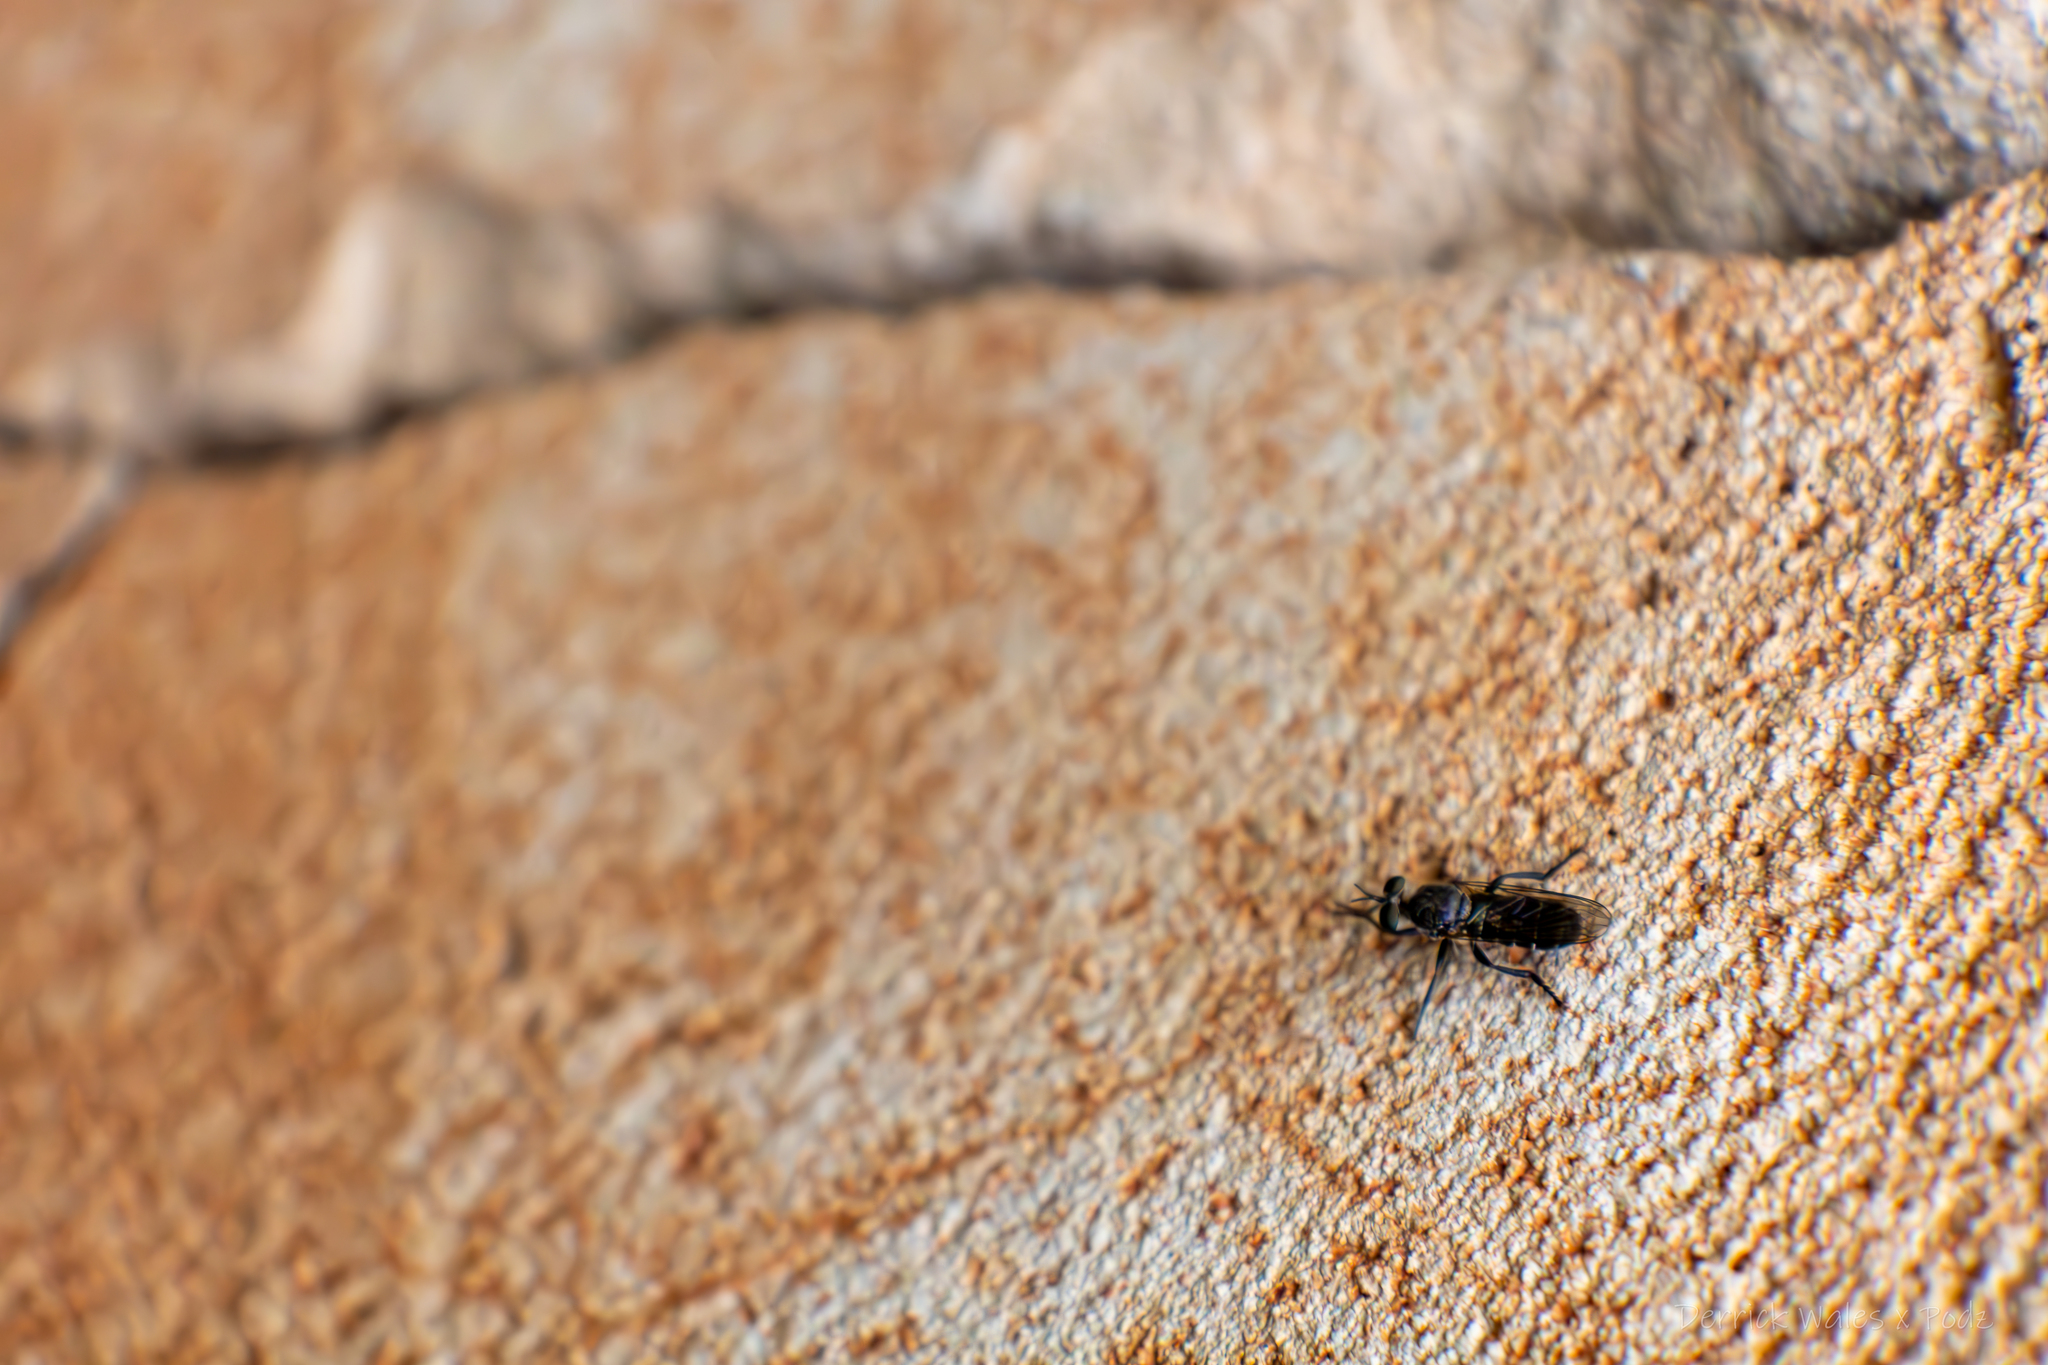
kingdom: Animalia
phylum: Arthropoda
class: Insecta
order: Diptera
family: Asilidae
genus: Atomosia
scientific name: Atomosia
